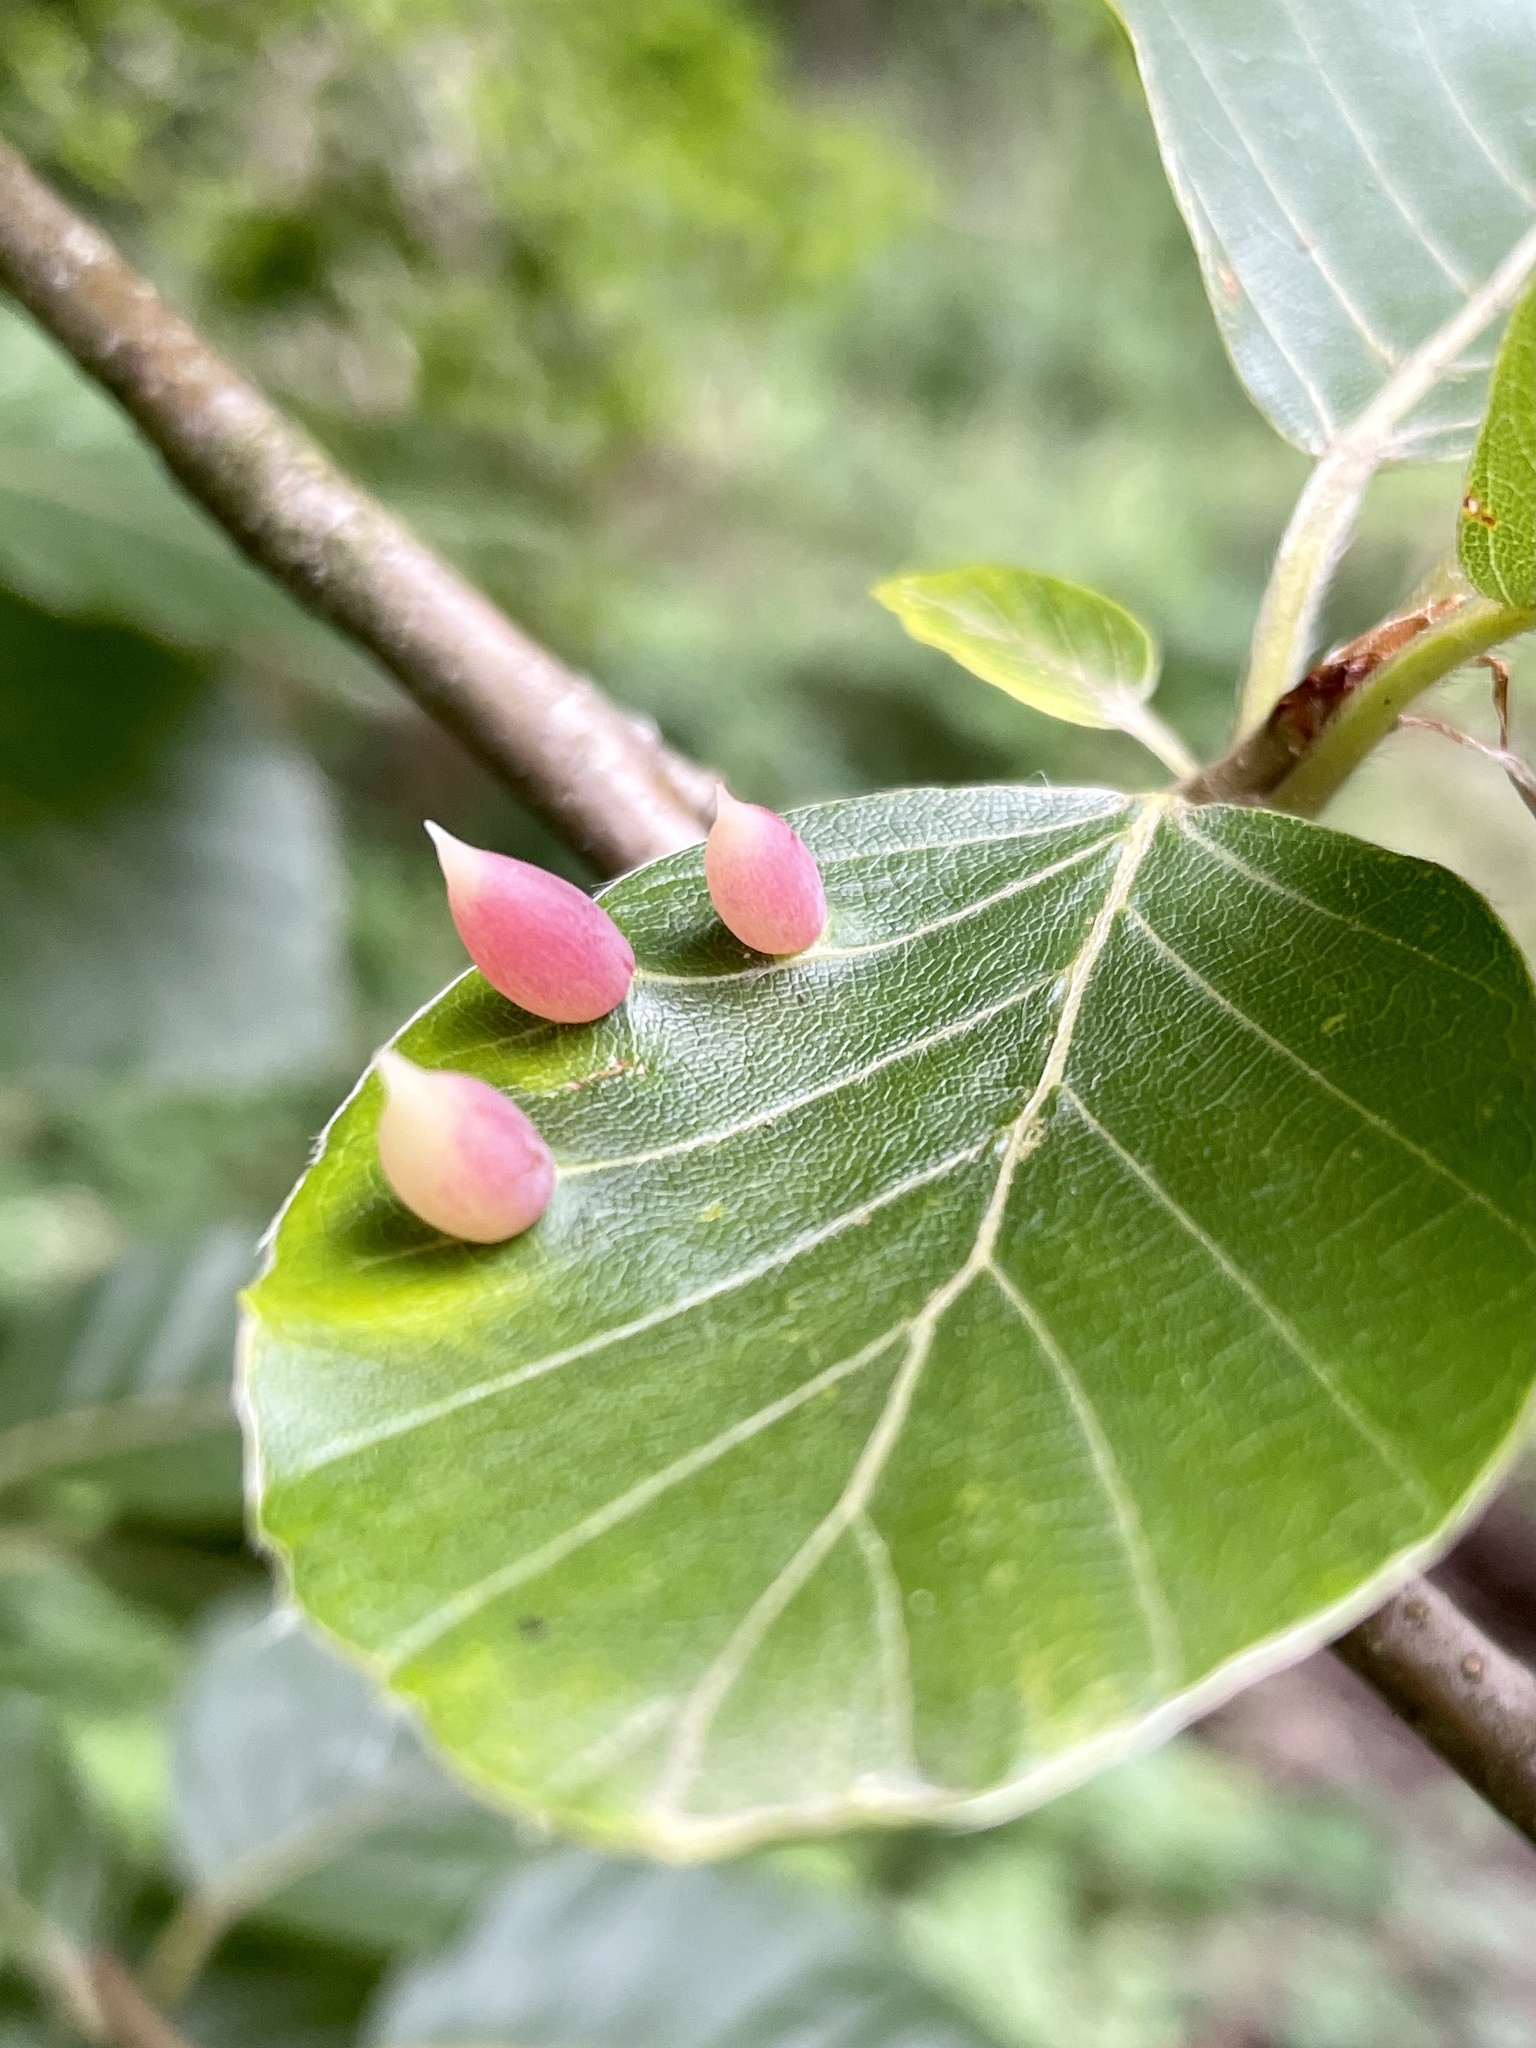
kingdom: Animalia
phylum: Arthropoda
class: Insecta
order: Diptera
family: Cecidomyiidae
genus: Mikiola
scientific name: Mikiola fagi
